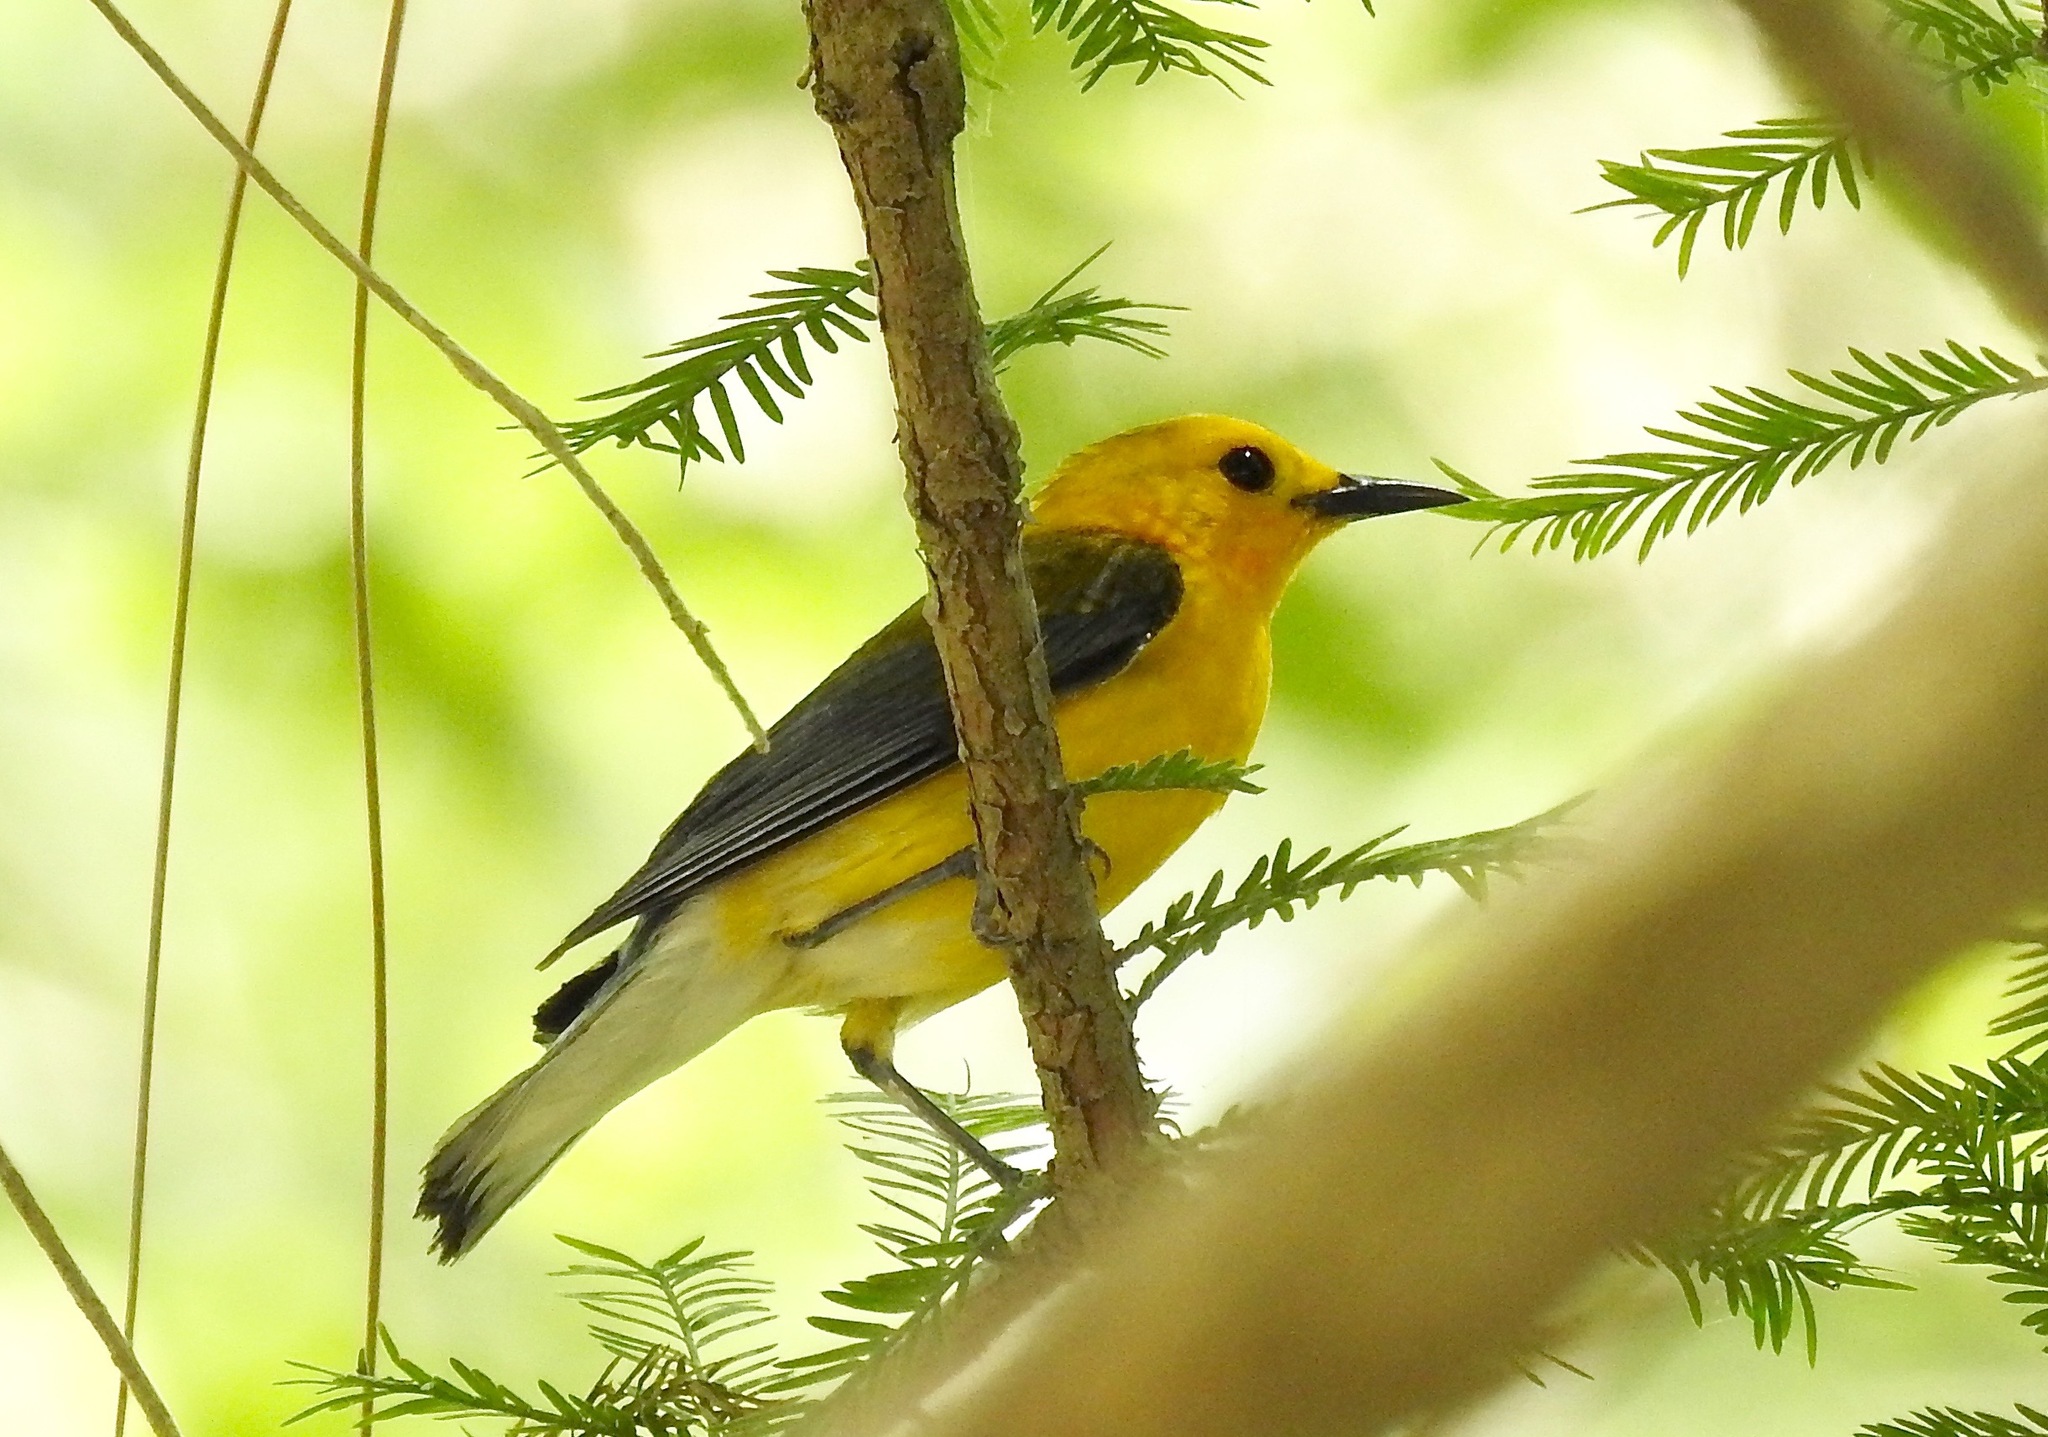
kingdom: Animalia
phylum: Chordata
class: Aves
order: Passeriformes
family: Parulidae
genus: Protonotaria
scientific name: Protonotaria citrea
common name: Prothonotary warbler
